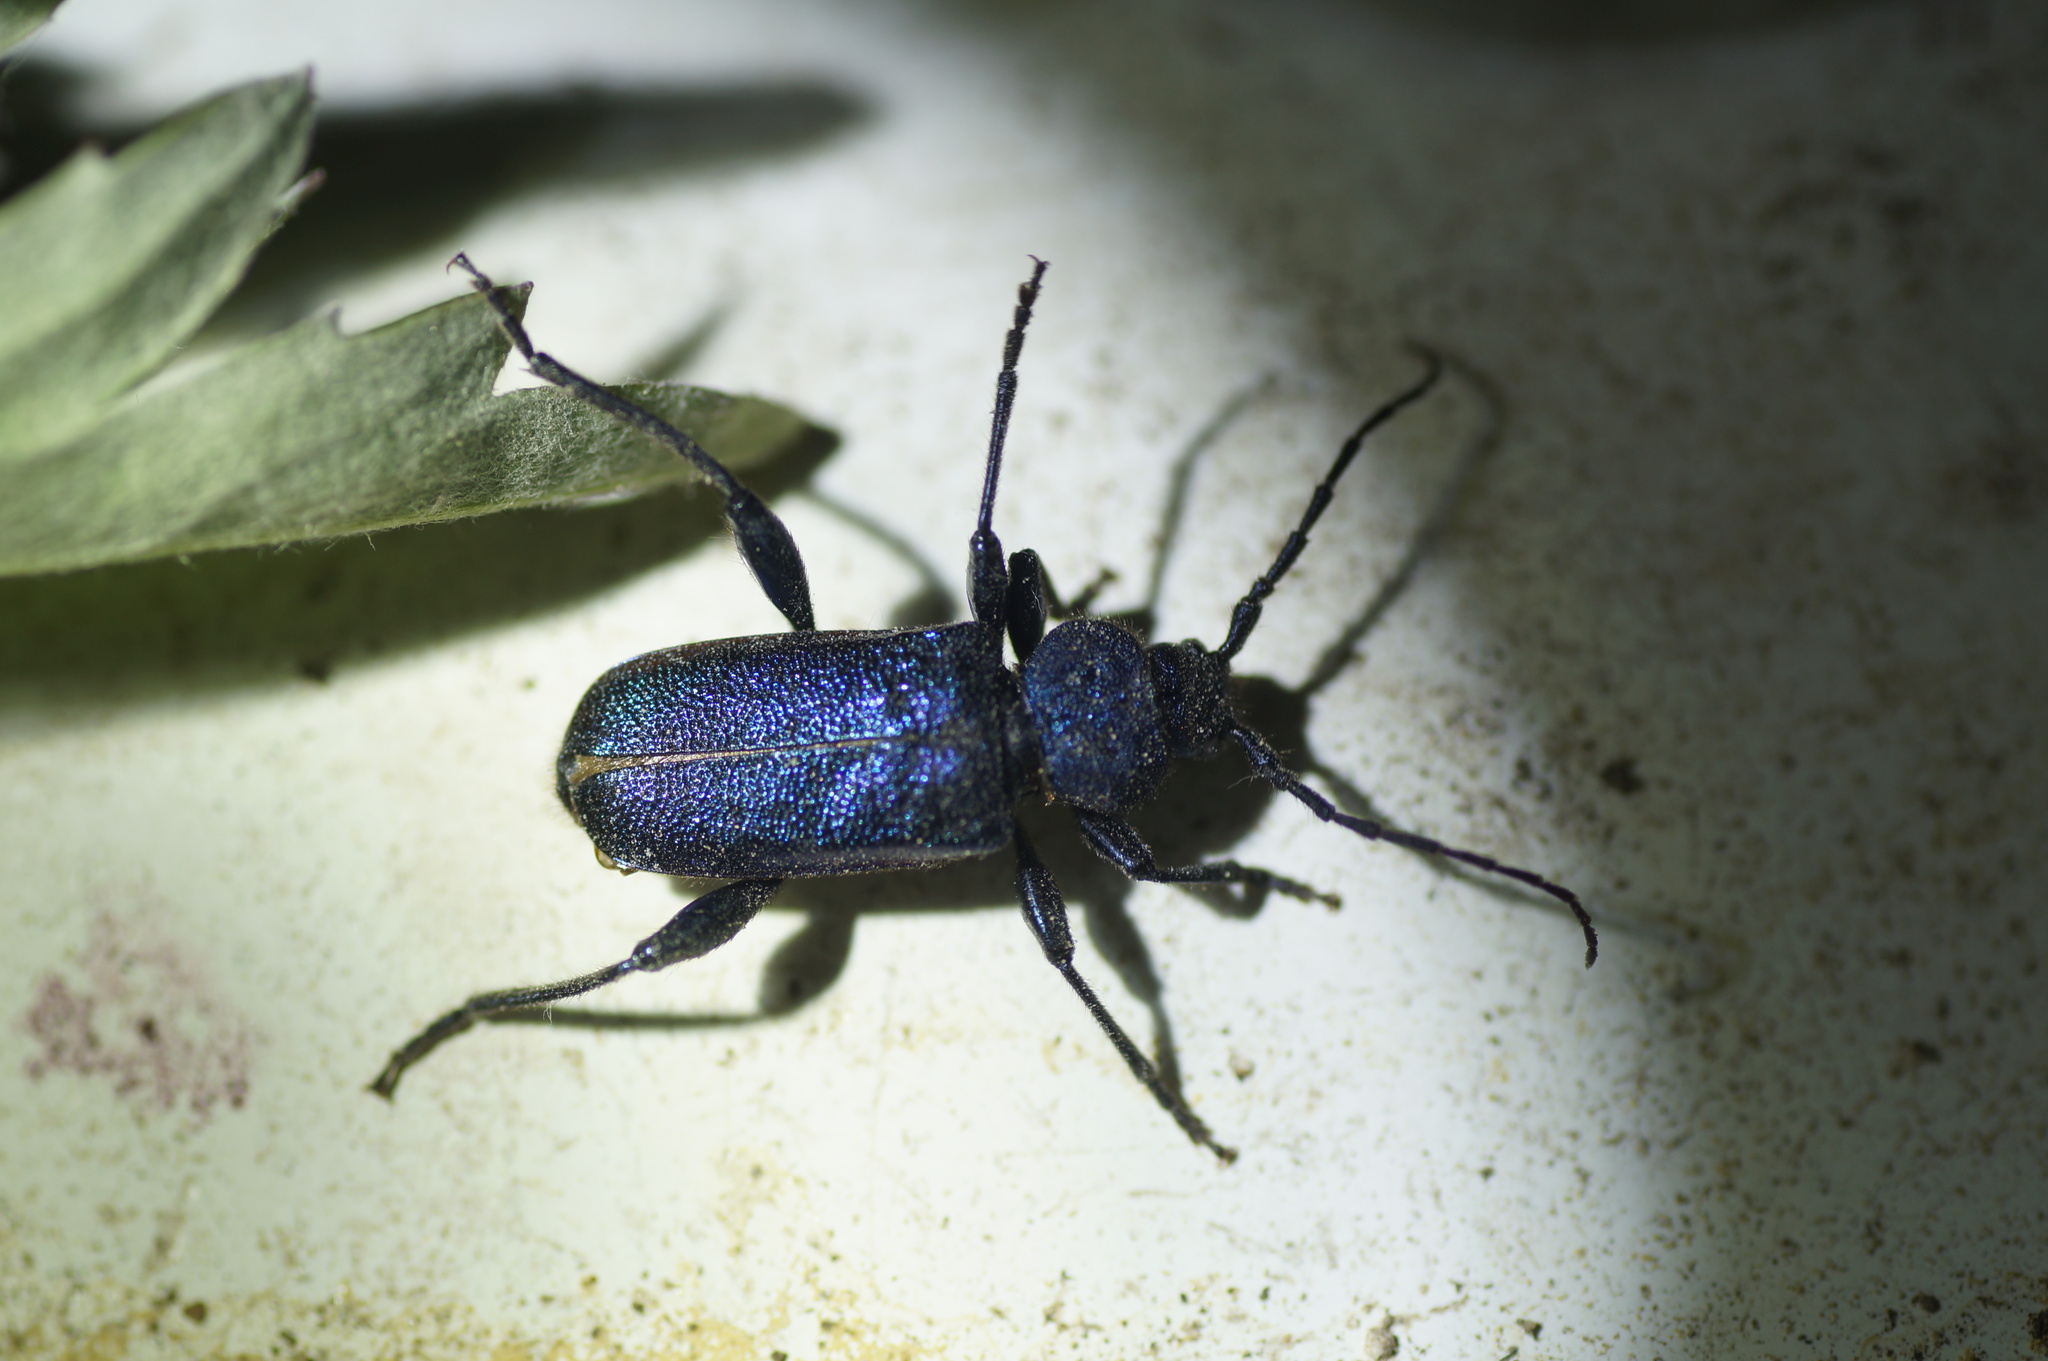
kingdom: Animalia
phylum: Arthropoda
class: Insecta
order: Coleoptera
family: Cerambycidae
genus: Callidium
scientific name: Callidium violaceum
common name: Violet tanbark beetle
